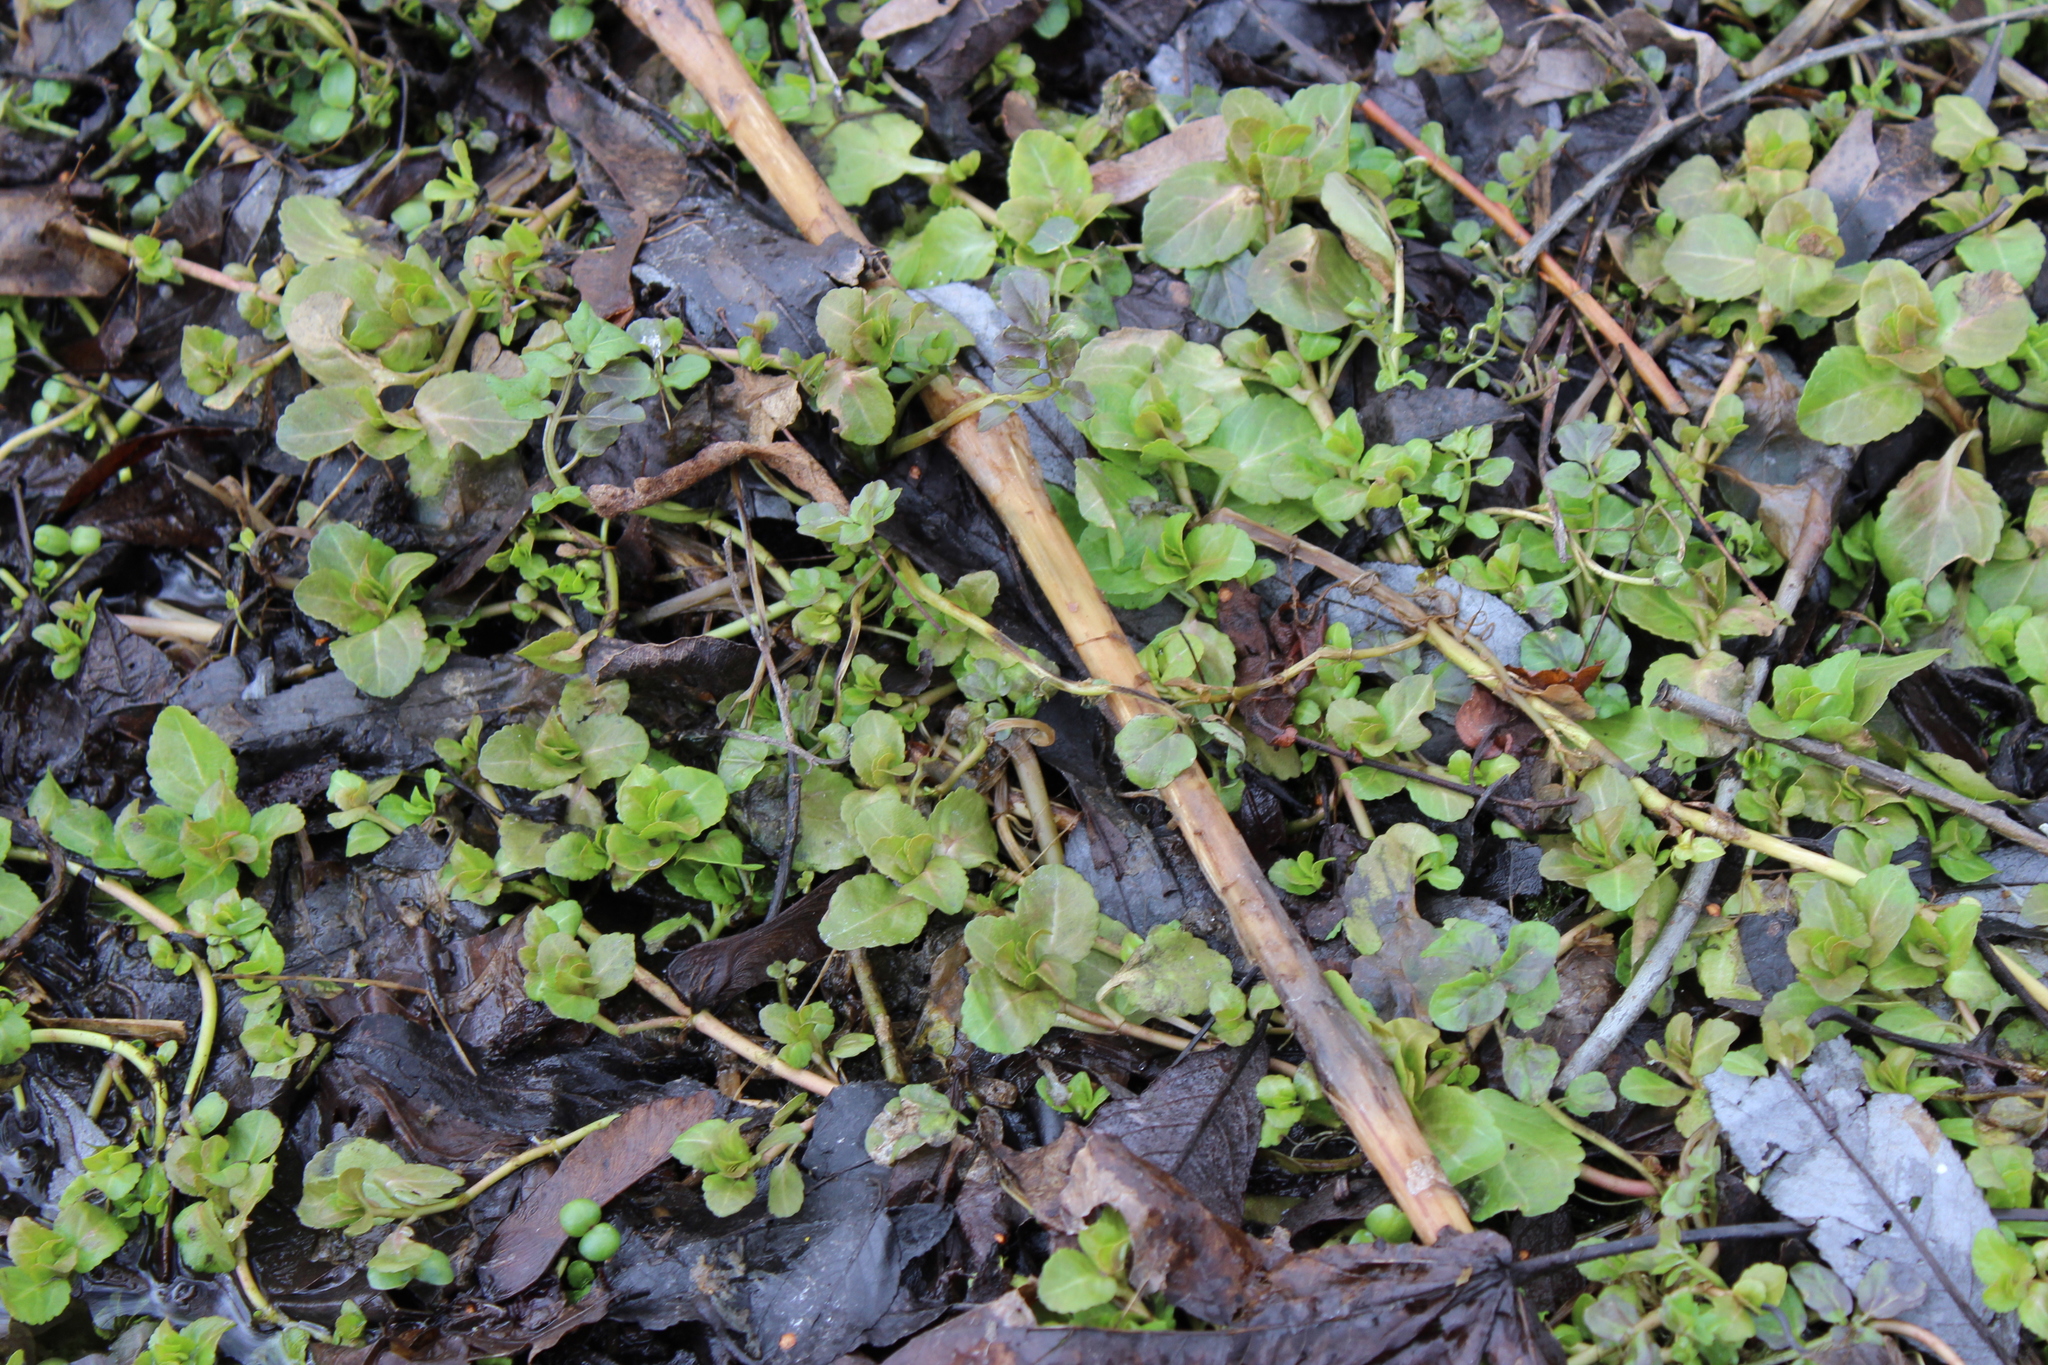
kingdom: Plantae
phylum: Tracheophyta
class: Magnoliopsida
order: Lamiales
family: Plantaginaceae
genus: Veronica
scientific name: Veronica beccabunga
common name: Brooklime
